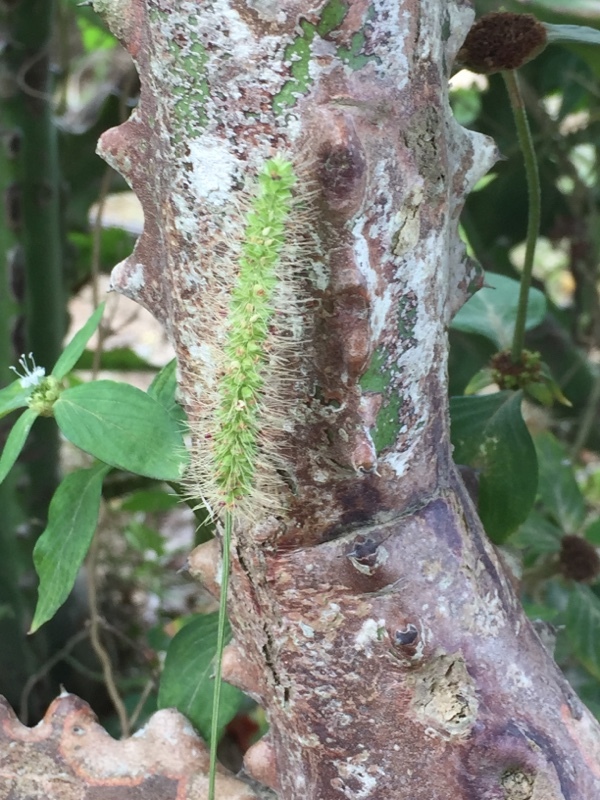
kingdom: Plantae
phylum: Tracheophyta
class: Liliopsida
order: Poales
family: Poaceae
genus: Setaria
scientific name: Setaria parviflora
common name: Knotroot bristle-grass
